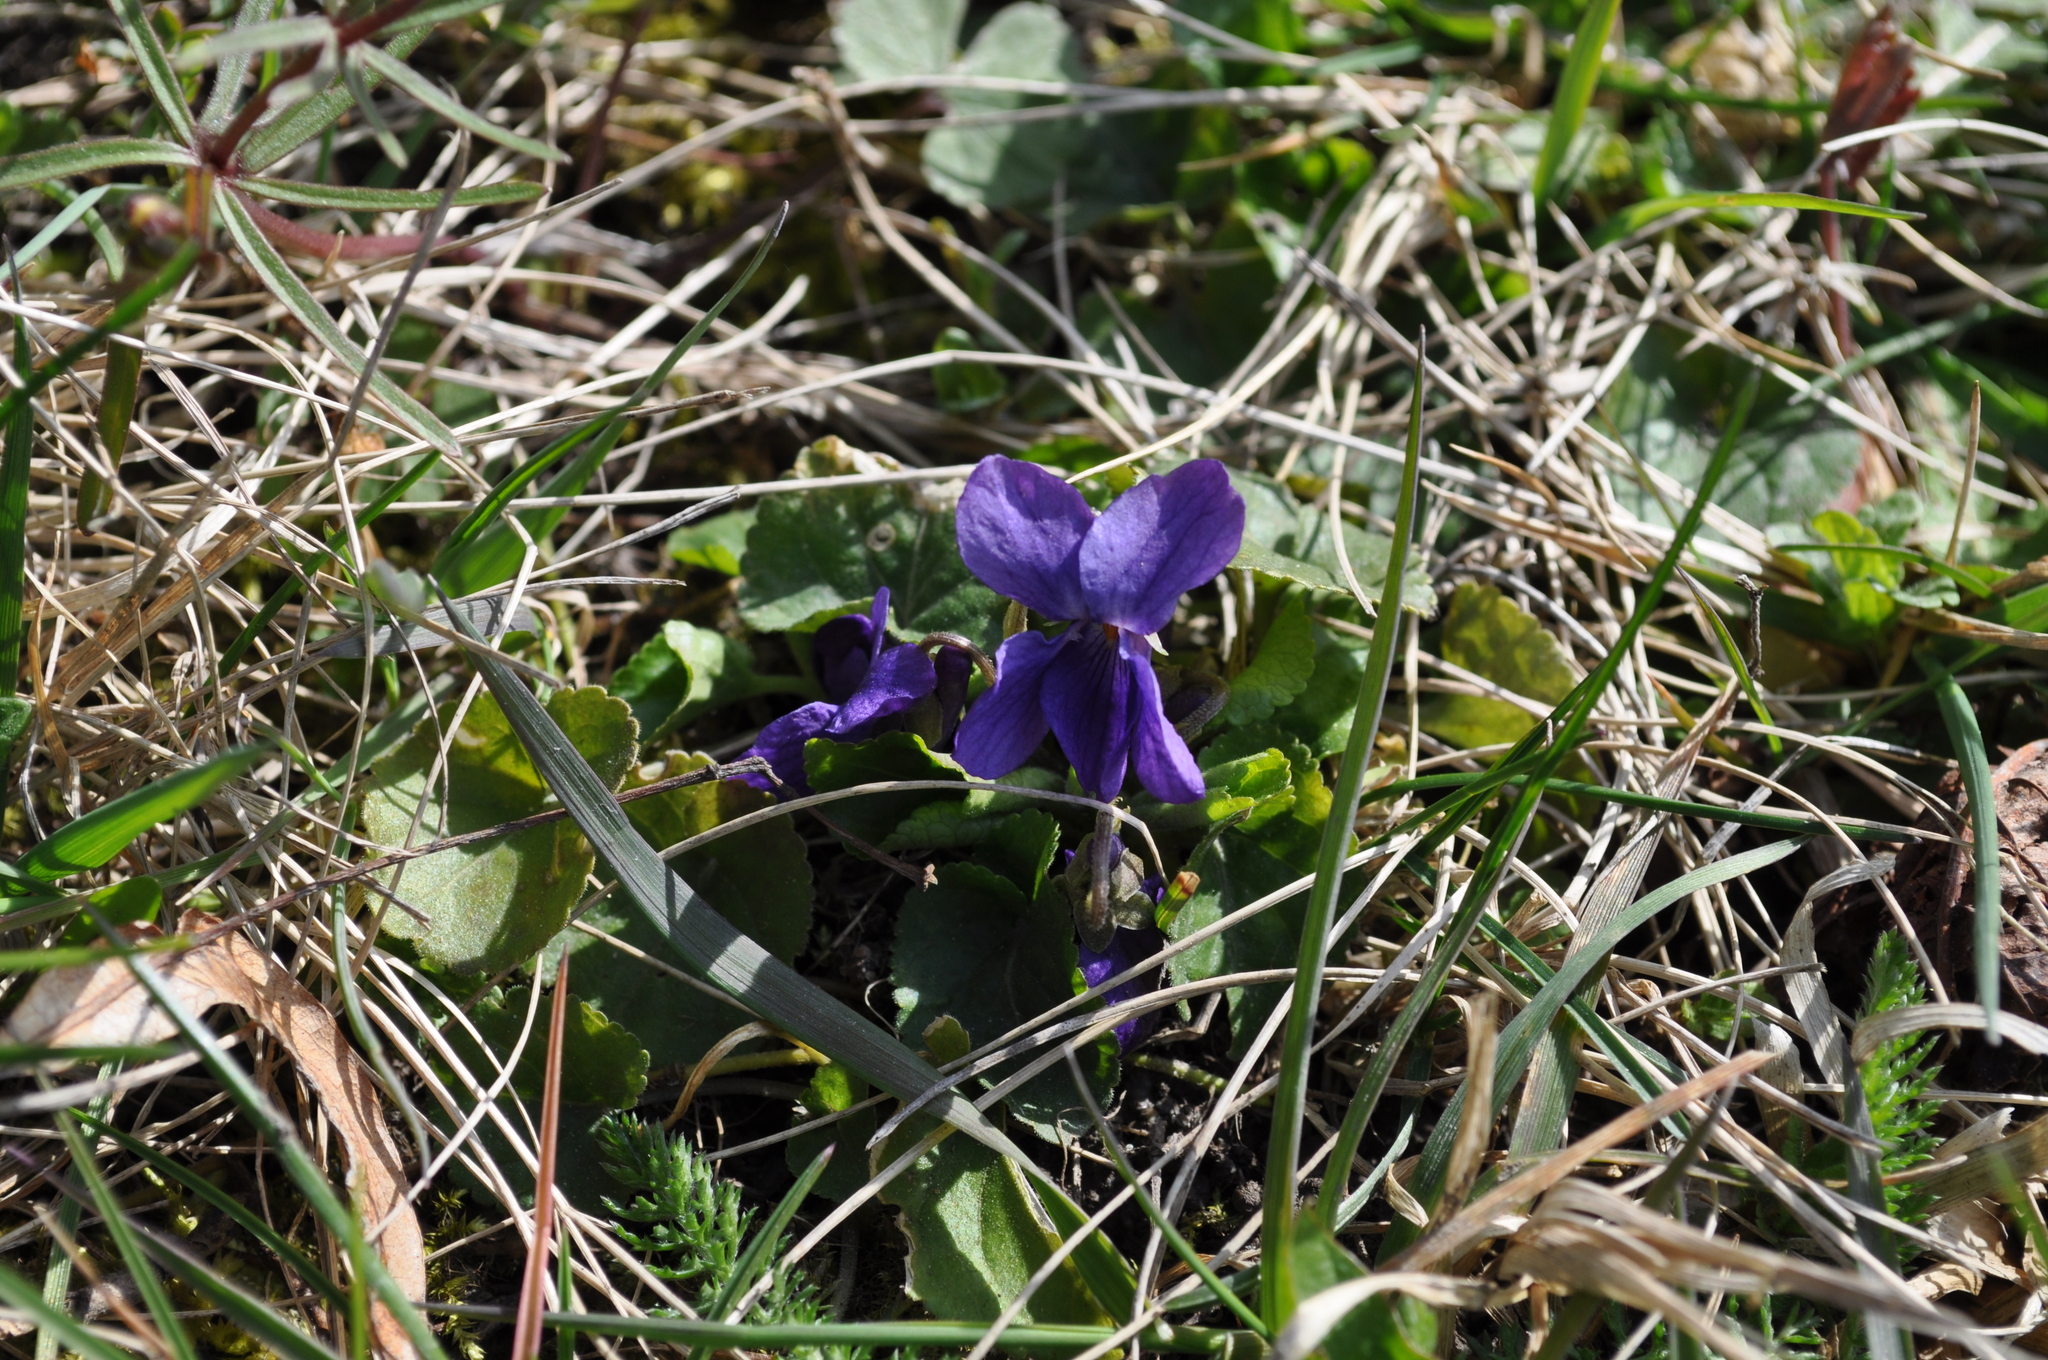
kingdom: Plantae
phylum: Tracheophyta
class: Magnoliopsida
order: Malpighiales
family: Violaceae
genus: Viola
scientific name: Viola odorata
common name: Sweet violet
